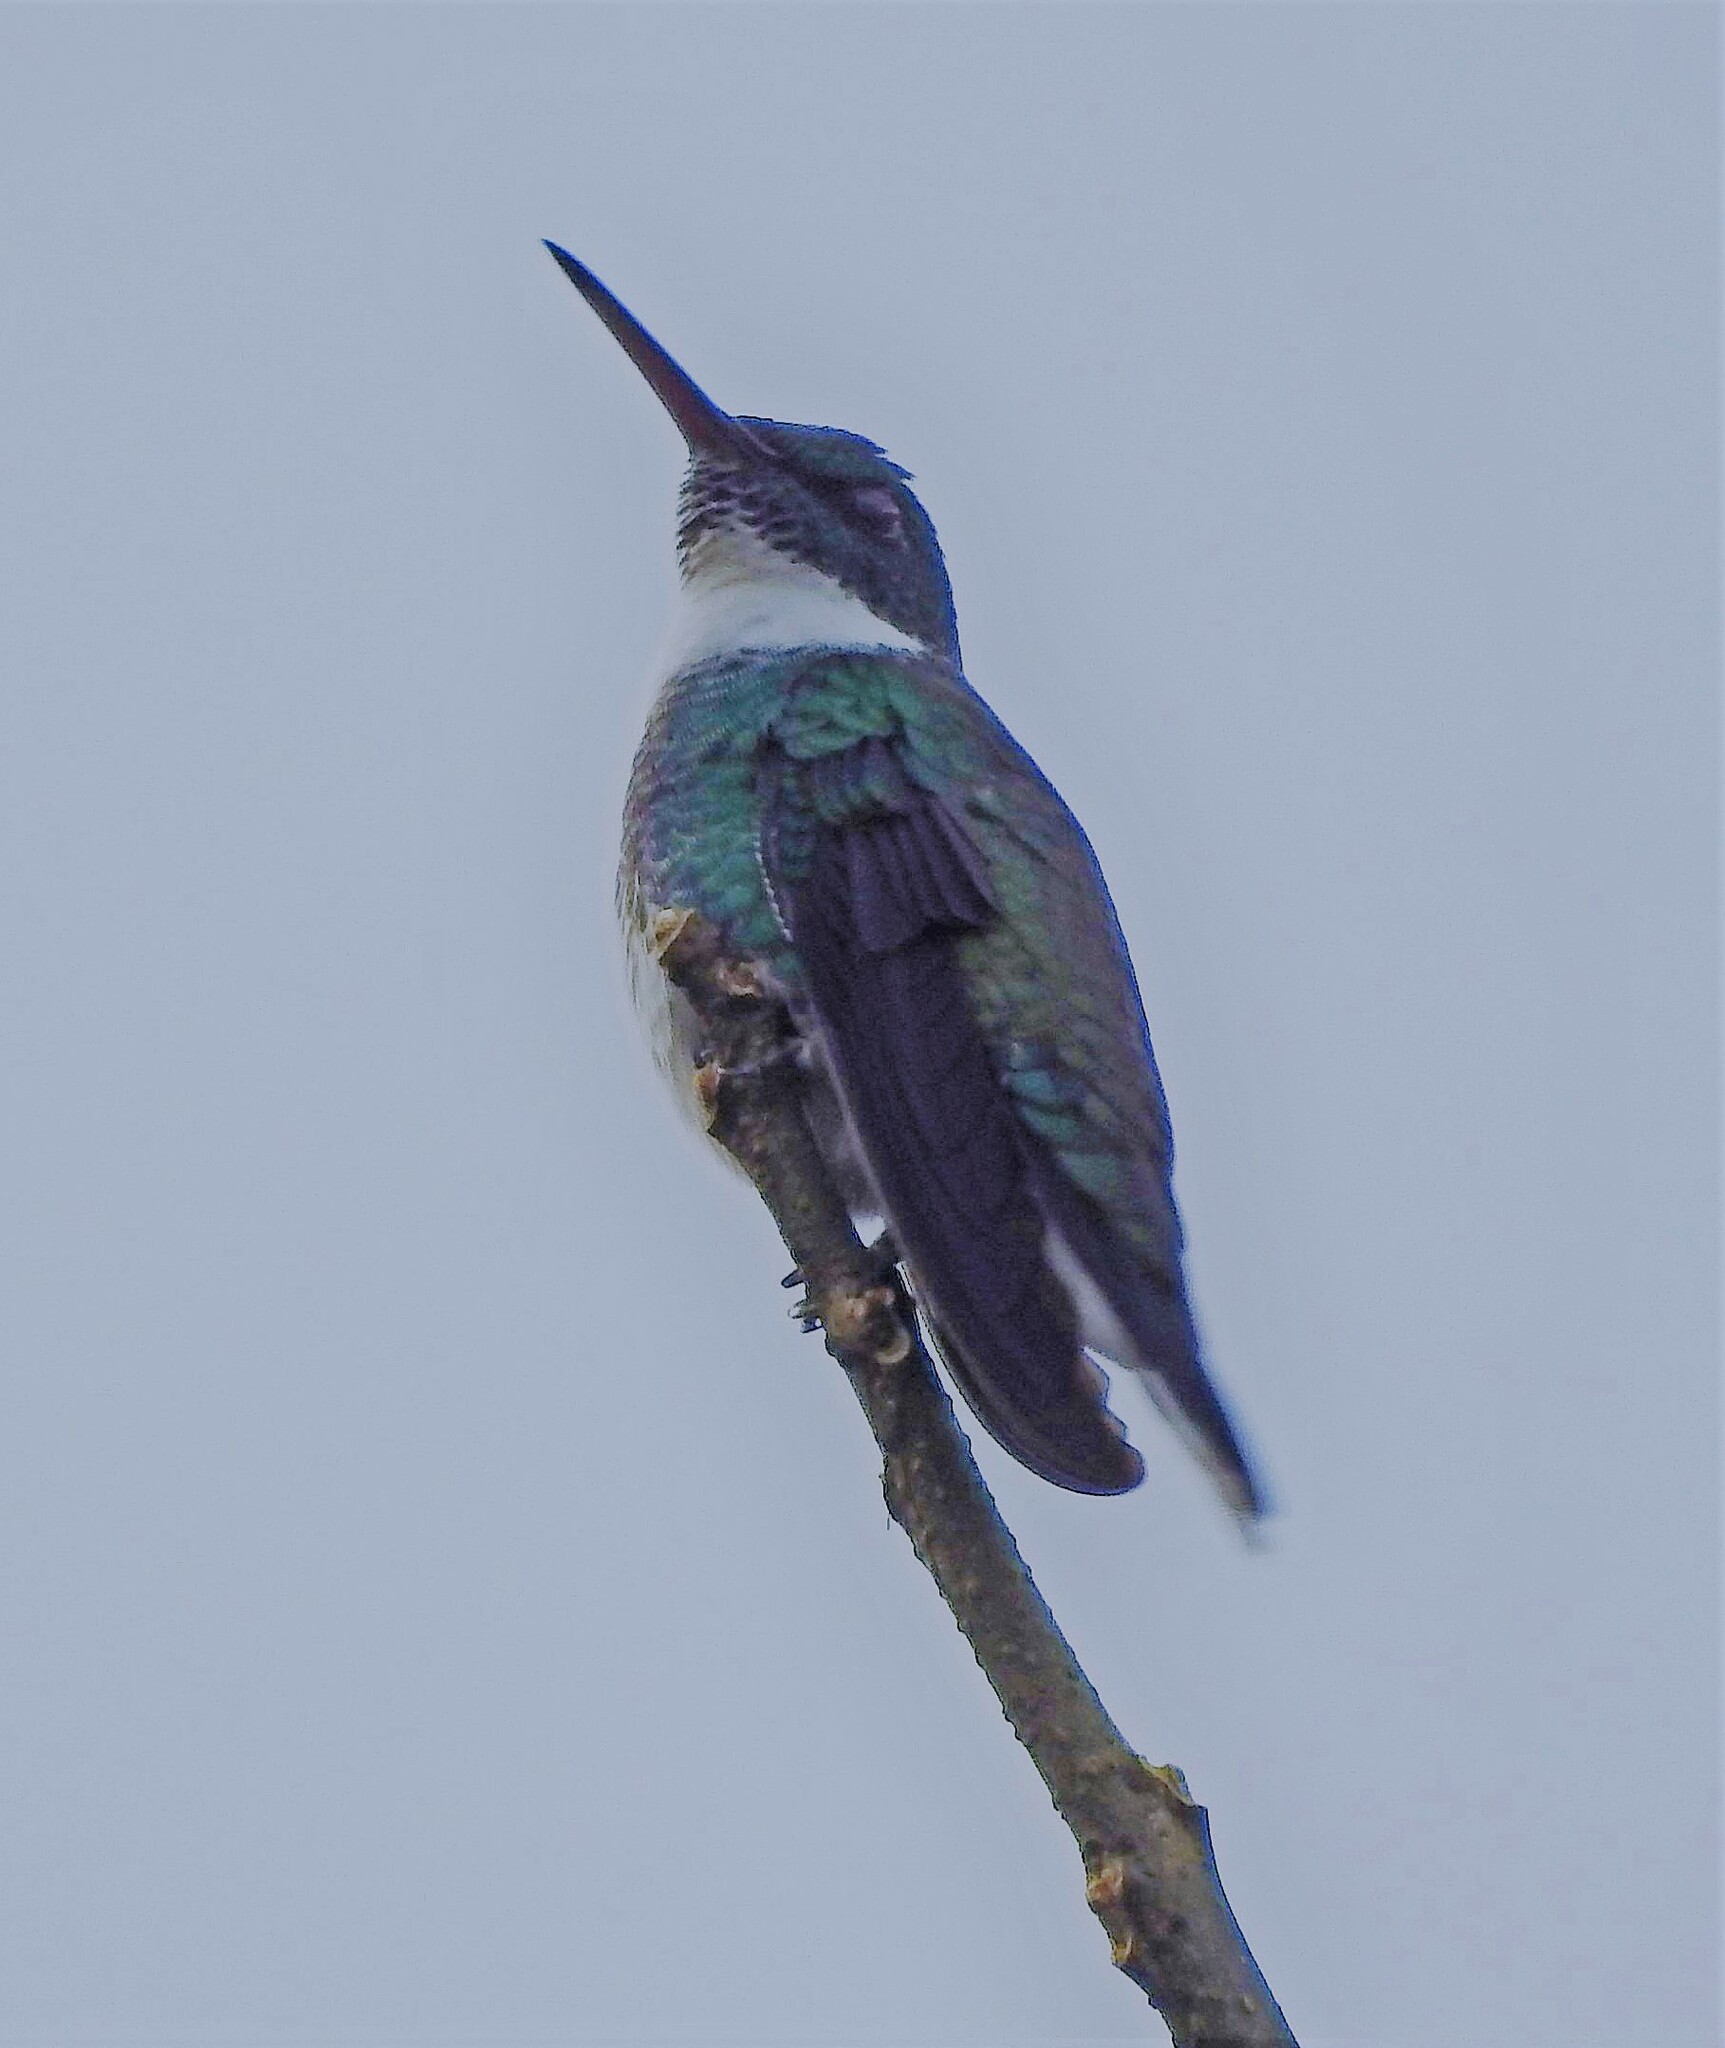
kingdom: Animalia
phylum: Chordata
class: Aves
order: Apodiformes
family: Trochilidae
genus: Leucochloris
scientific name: Leucochloris albicollis
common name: White-throated hummingbird
